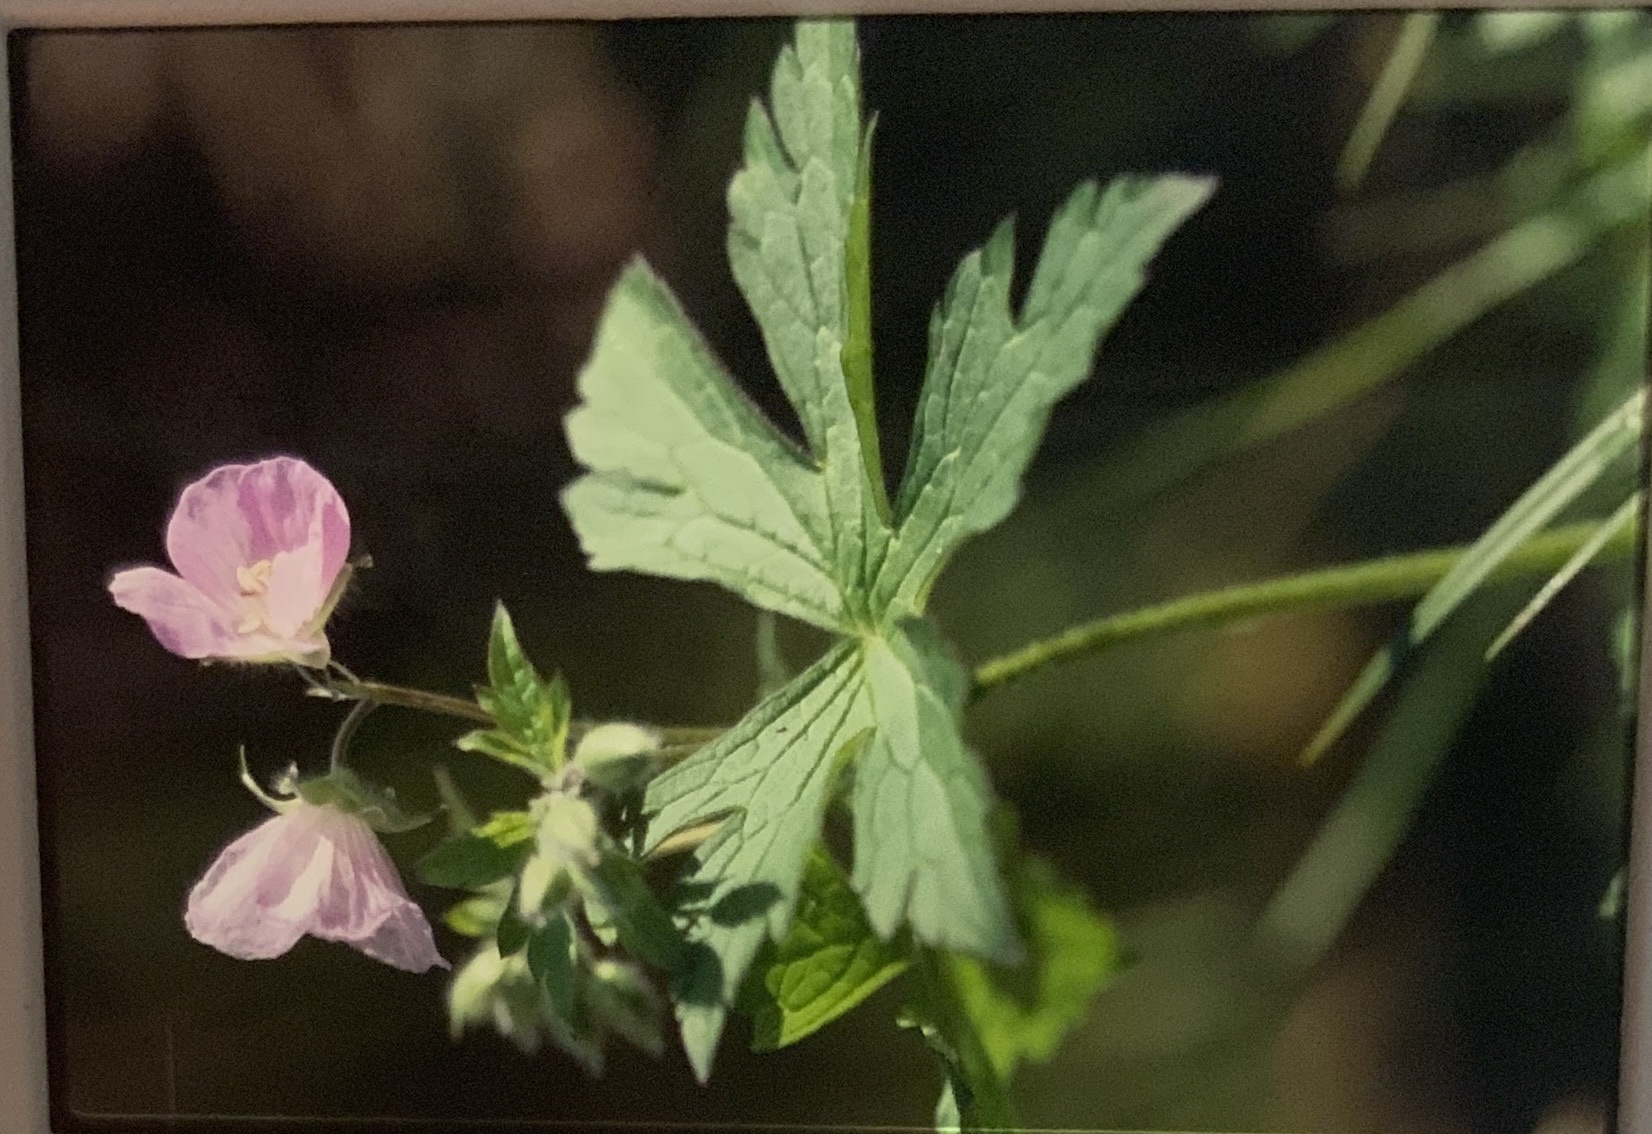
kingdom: Plantae
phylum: Tracheophyta
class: Magnoliopsida
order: Geraniales
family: Geraniaceae
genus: Geranium
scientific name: Geranium maculatum
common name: Spotted geranium
